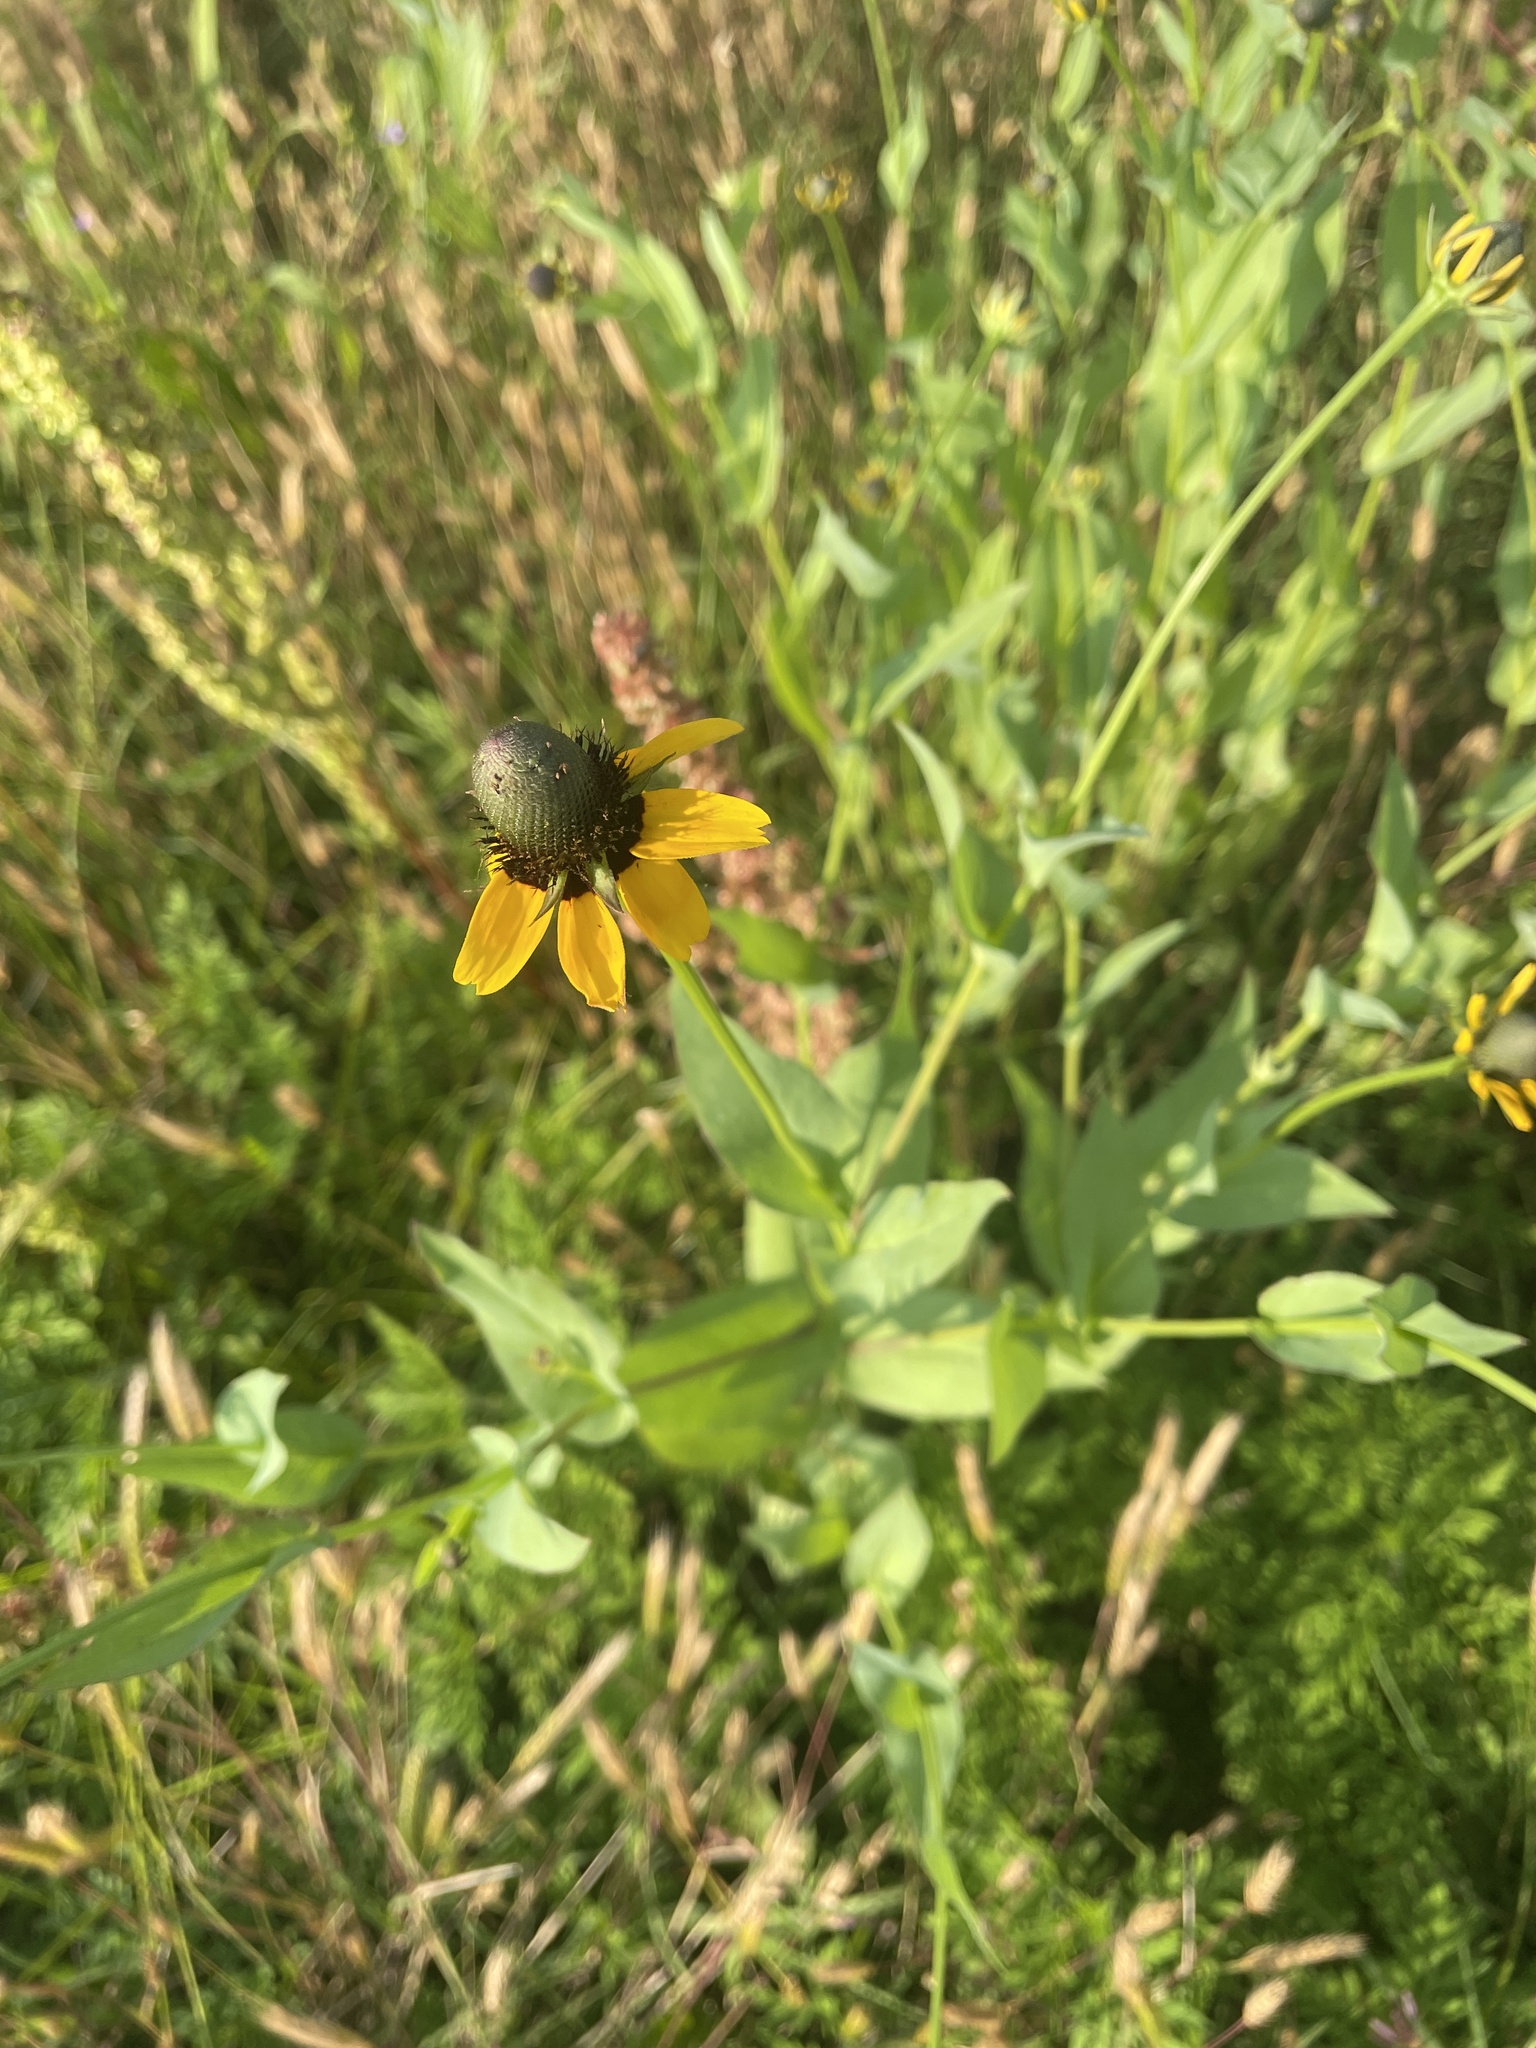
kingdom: Plantae
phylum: Tracheophyta
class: Magnoliopsida
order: Asterales
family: Asteraceae
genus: Rudbeckia
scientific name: Rudbeckia amplexicaulis
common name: Clasping-leaf coneflower
